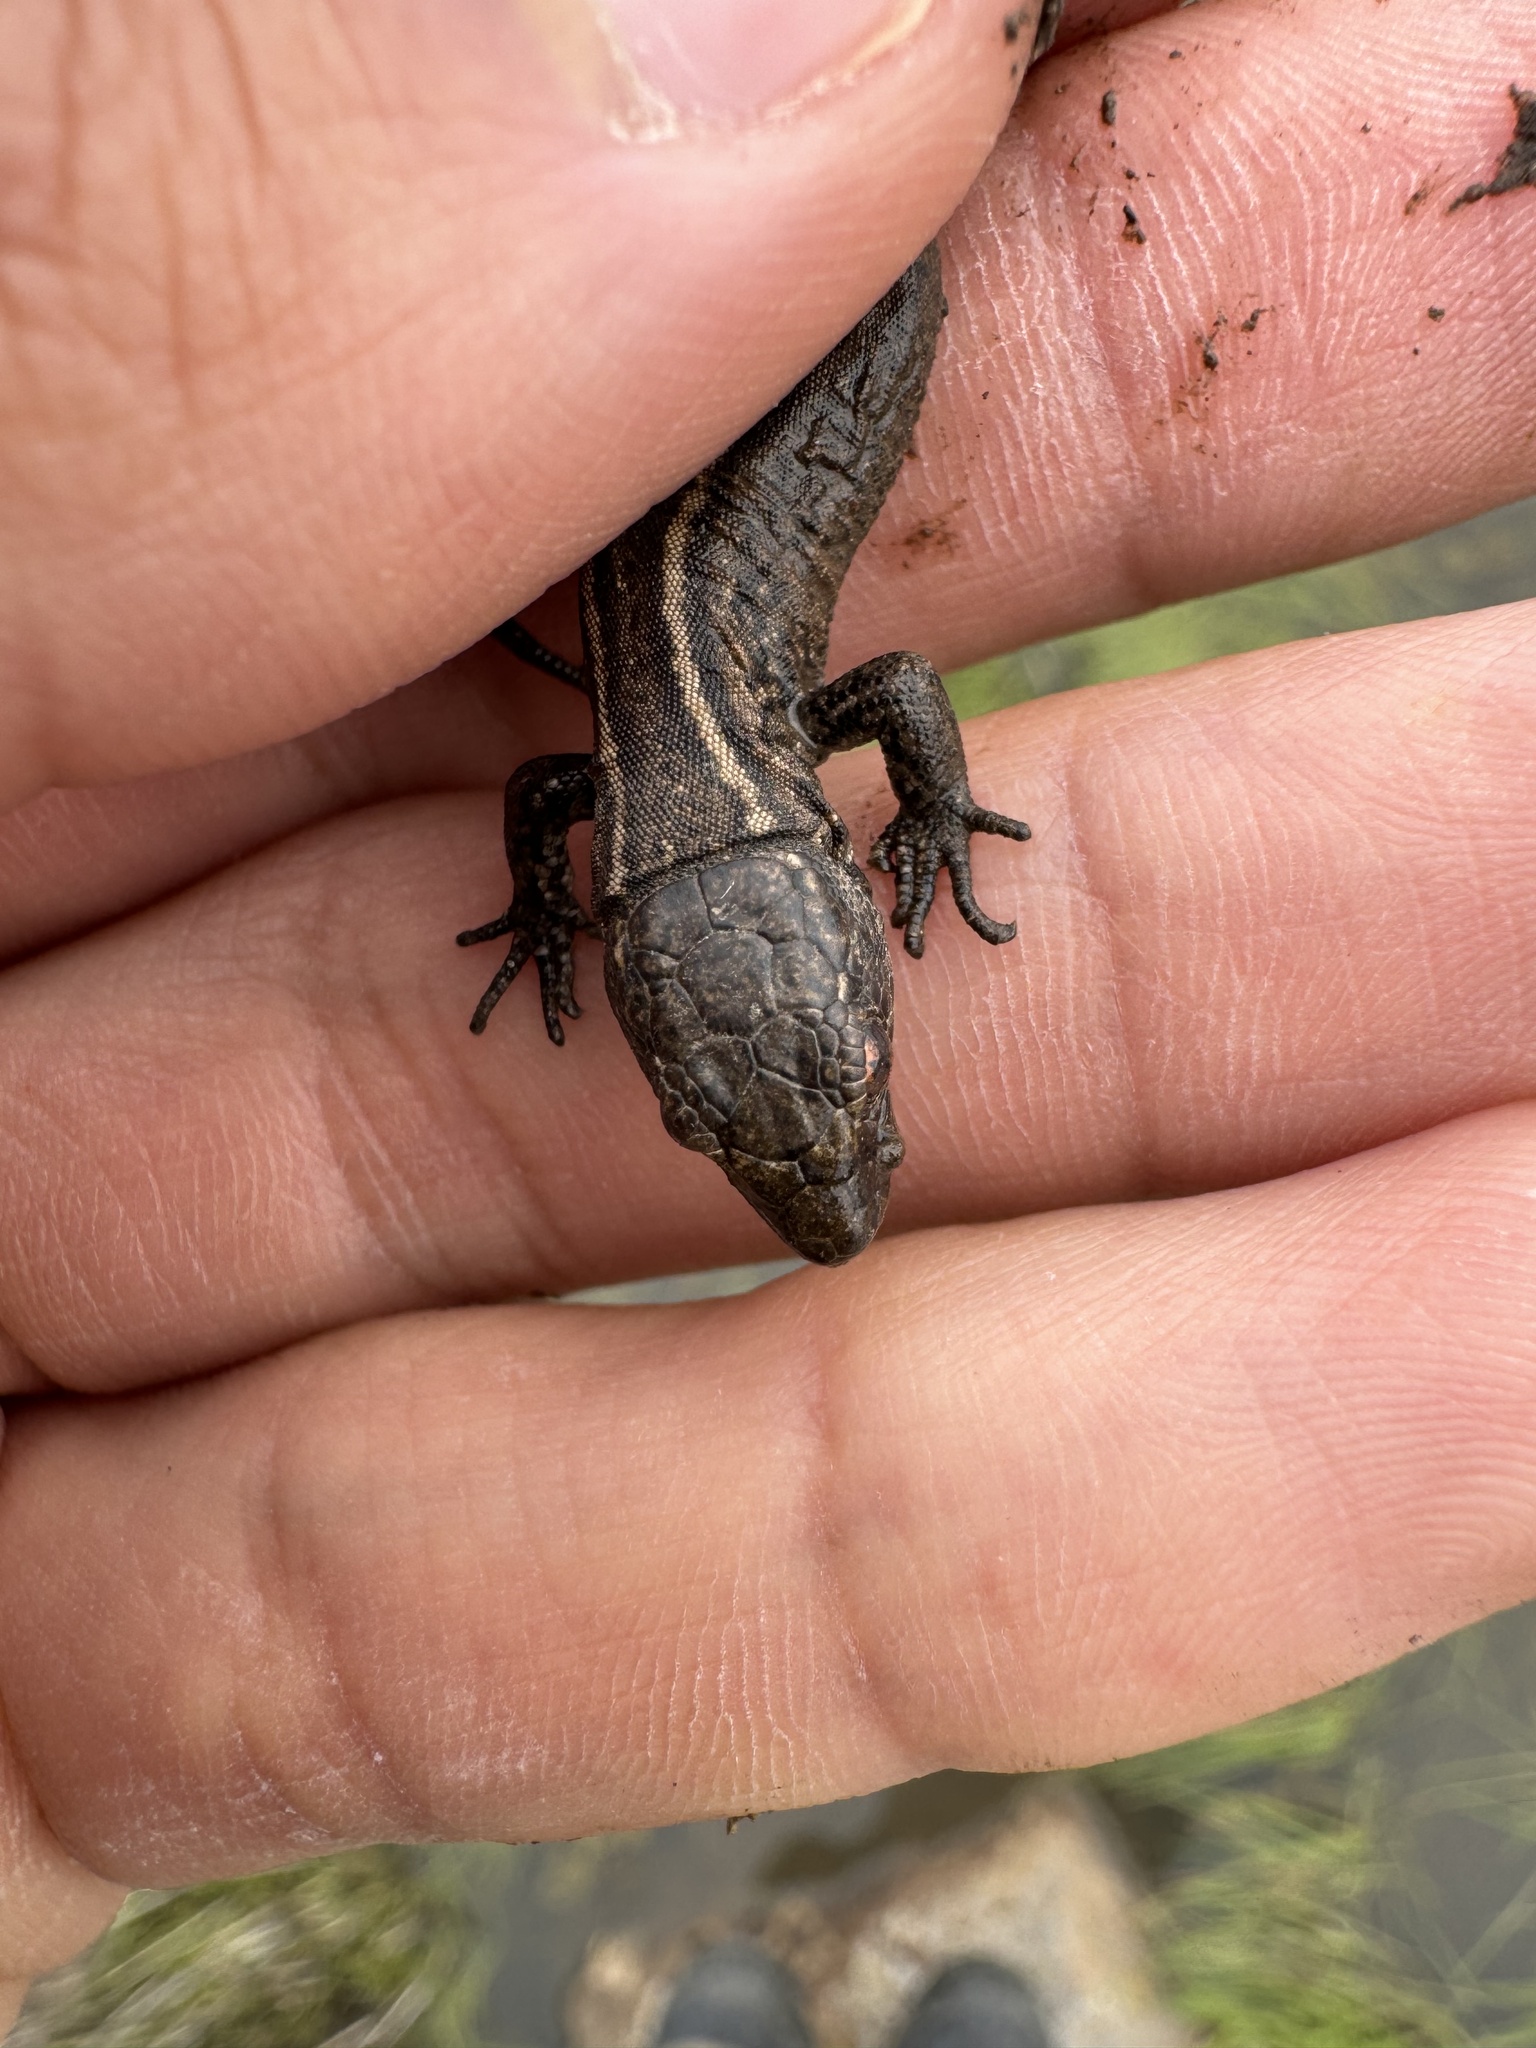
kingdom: Animalia
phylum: Chordata
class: Squamata
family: Xantusiidae
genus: Xantusia
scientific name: Xantusia riversiana
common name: Island night lizard
